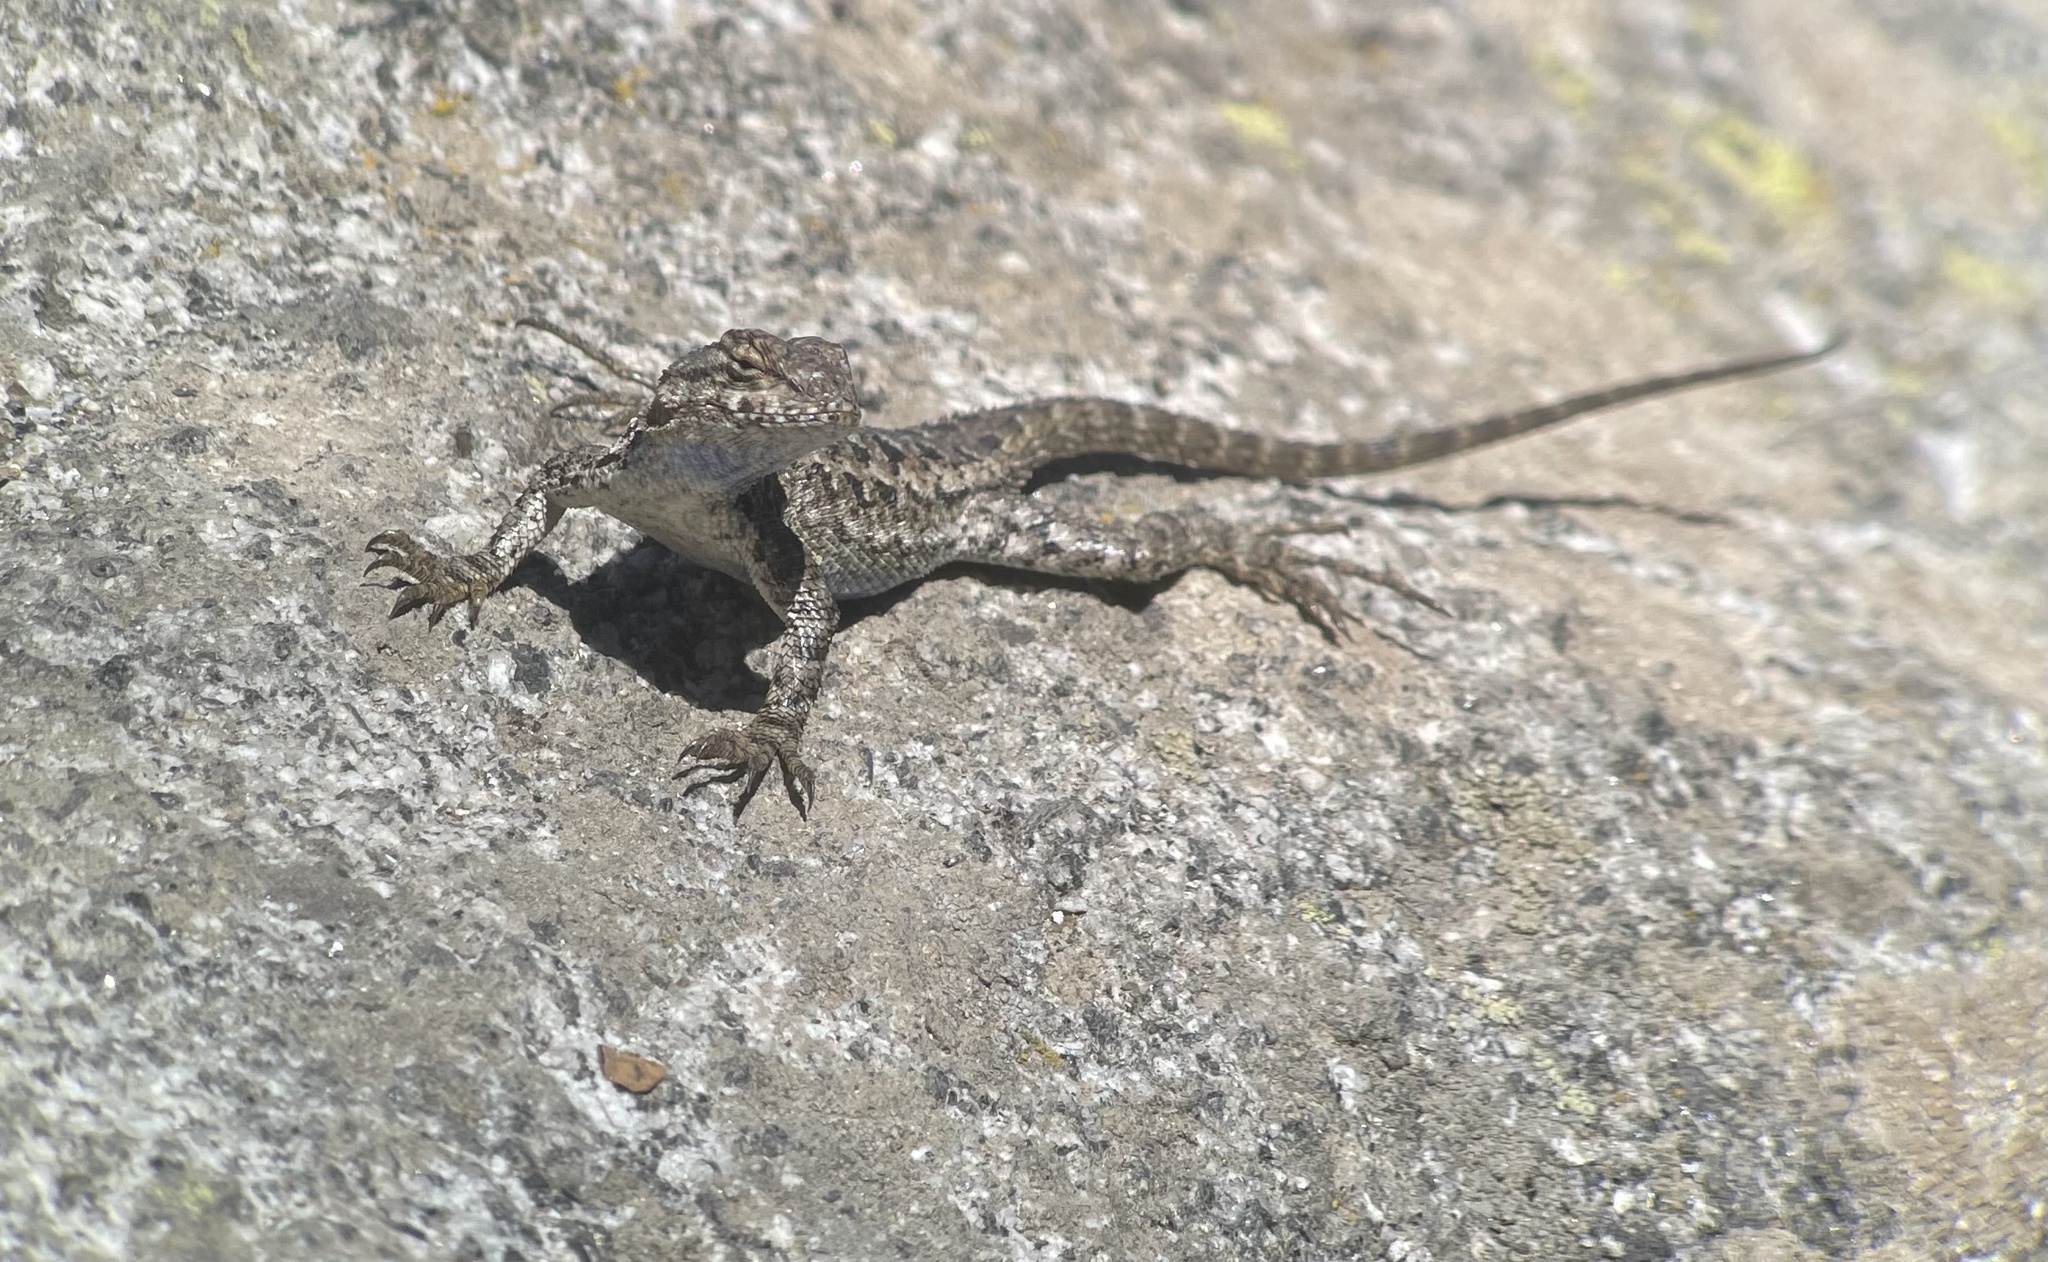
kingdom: Animalia
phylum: Chordata
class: Squamata
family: Phrynosomatidae
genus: Sceloporus
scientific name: Sceloporus occidentalis
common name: Western fence lizard
